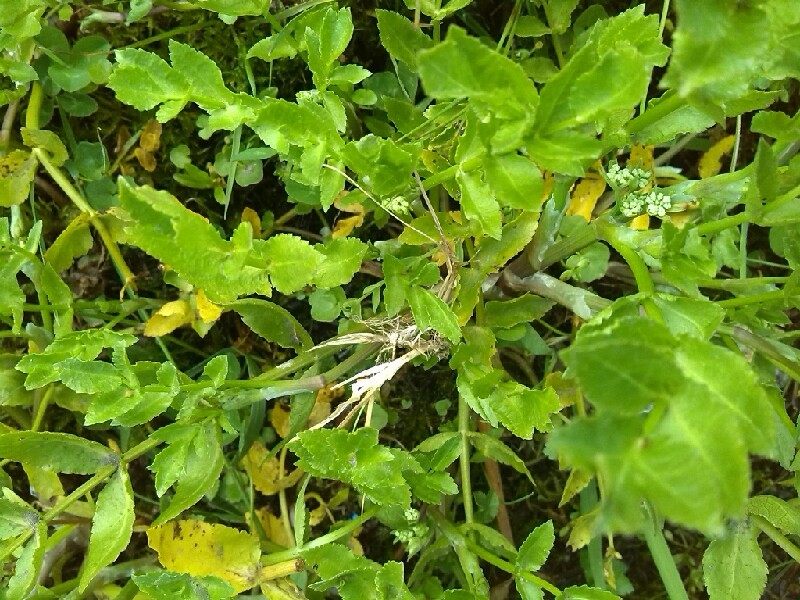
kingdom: Plantae
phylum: Tracheophyta
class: Magnoliopsida
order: Apiales
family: Apiaceae
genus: Helosciadium
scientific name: Helosciadium nodiflorum
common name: Fool's-watercress
